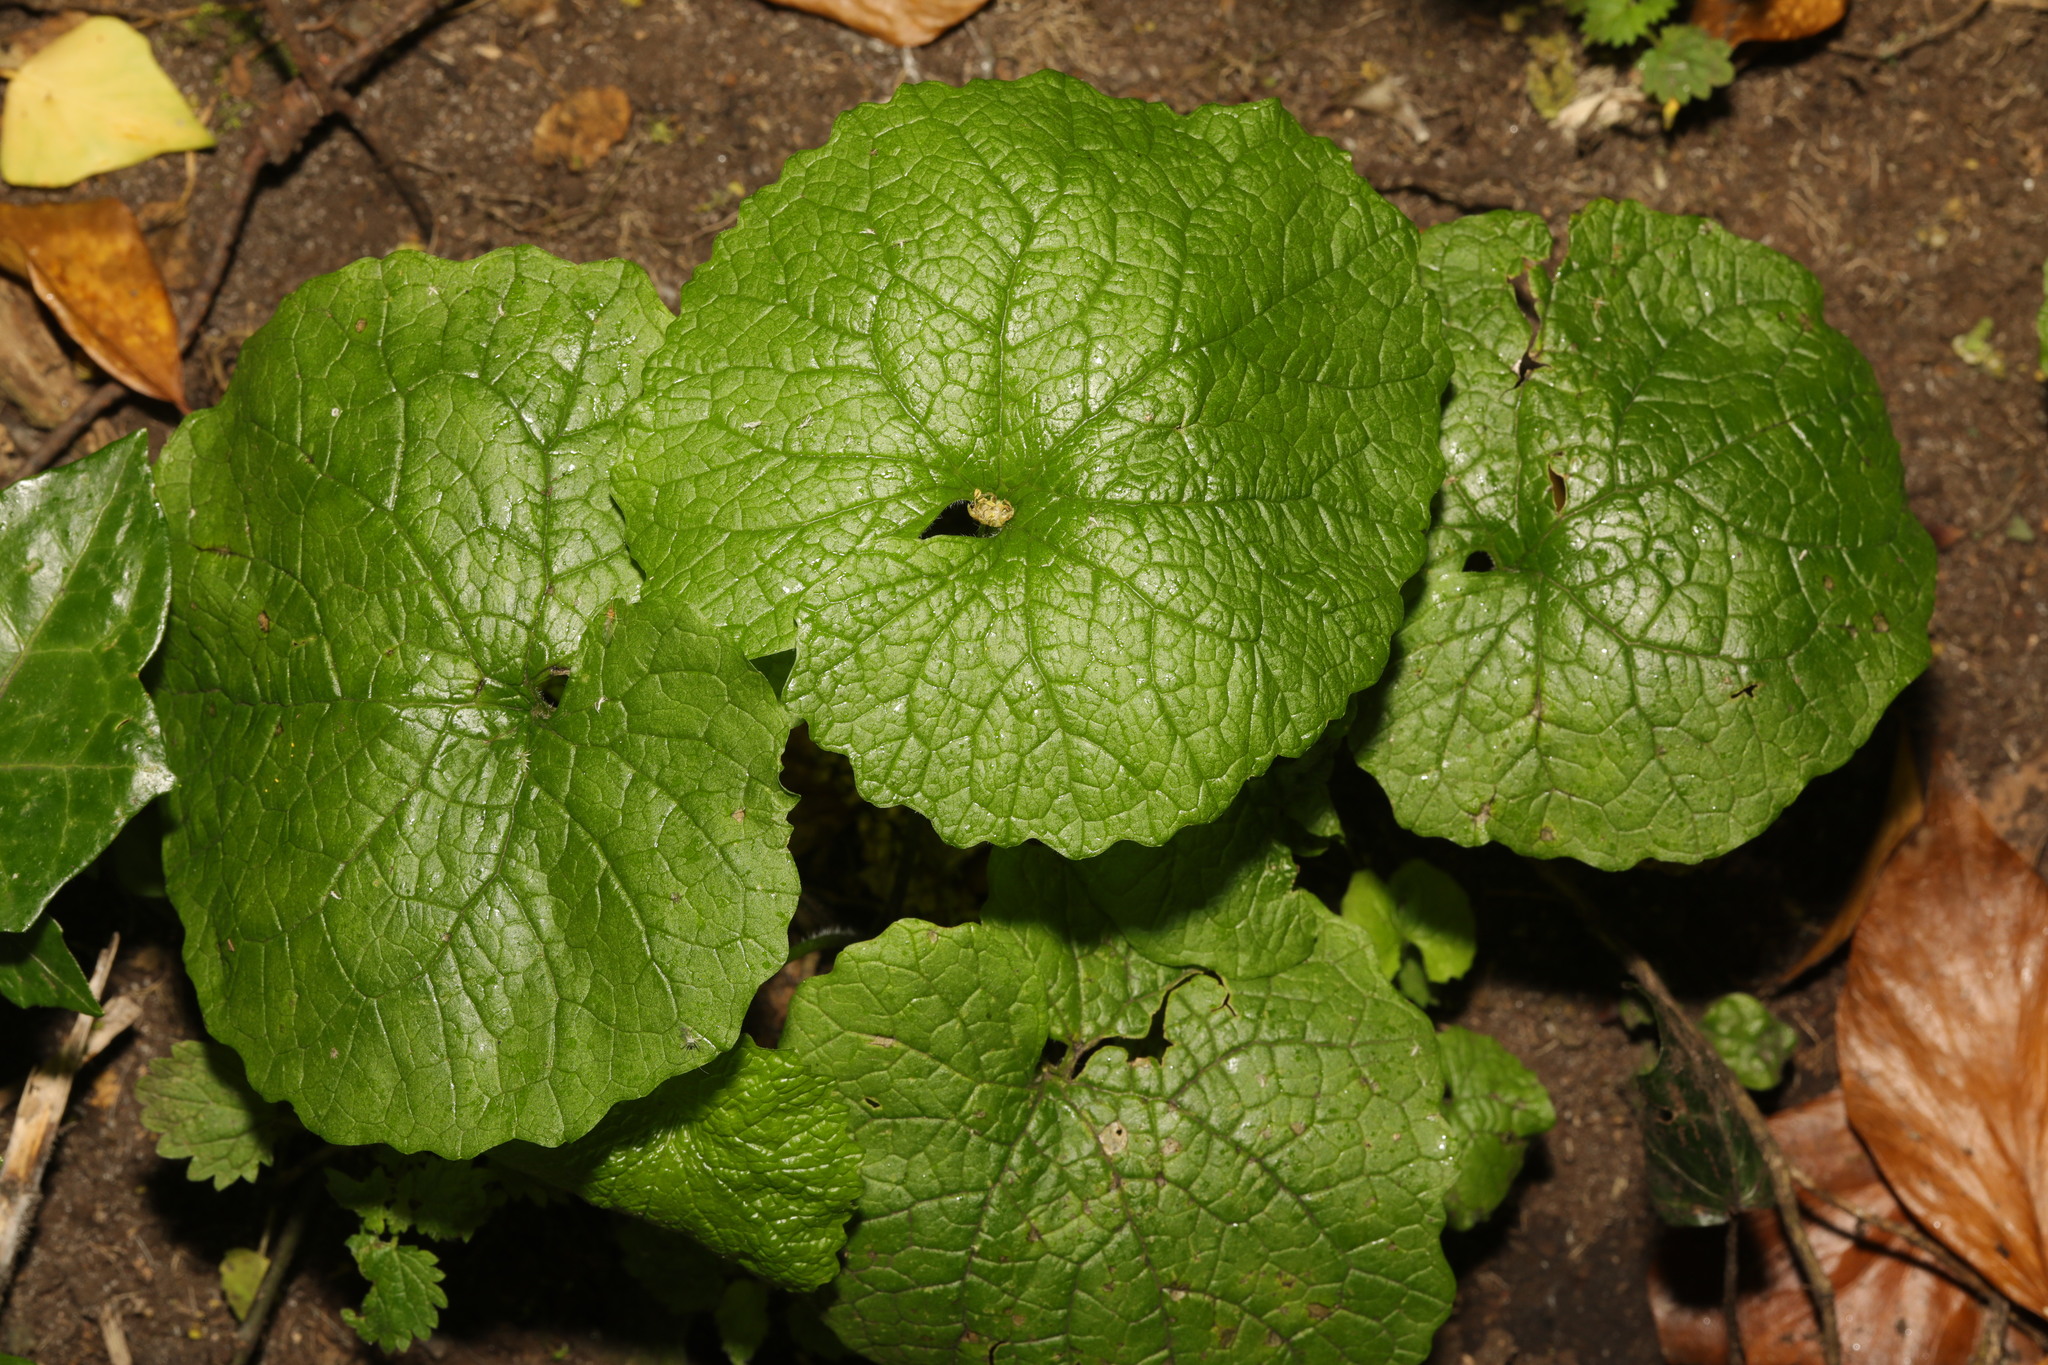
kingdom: Plantae
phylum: Tracheophyta
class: Magnoliopsida
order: Brassicales
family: Brassicaceae
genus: Alliaria
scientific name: Alliaria petiolata
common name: Garlic mustard
